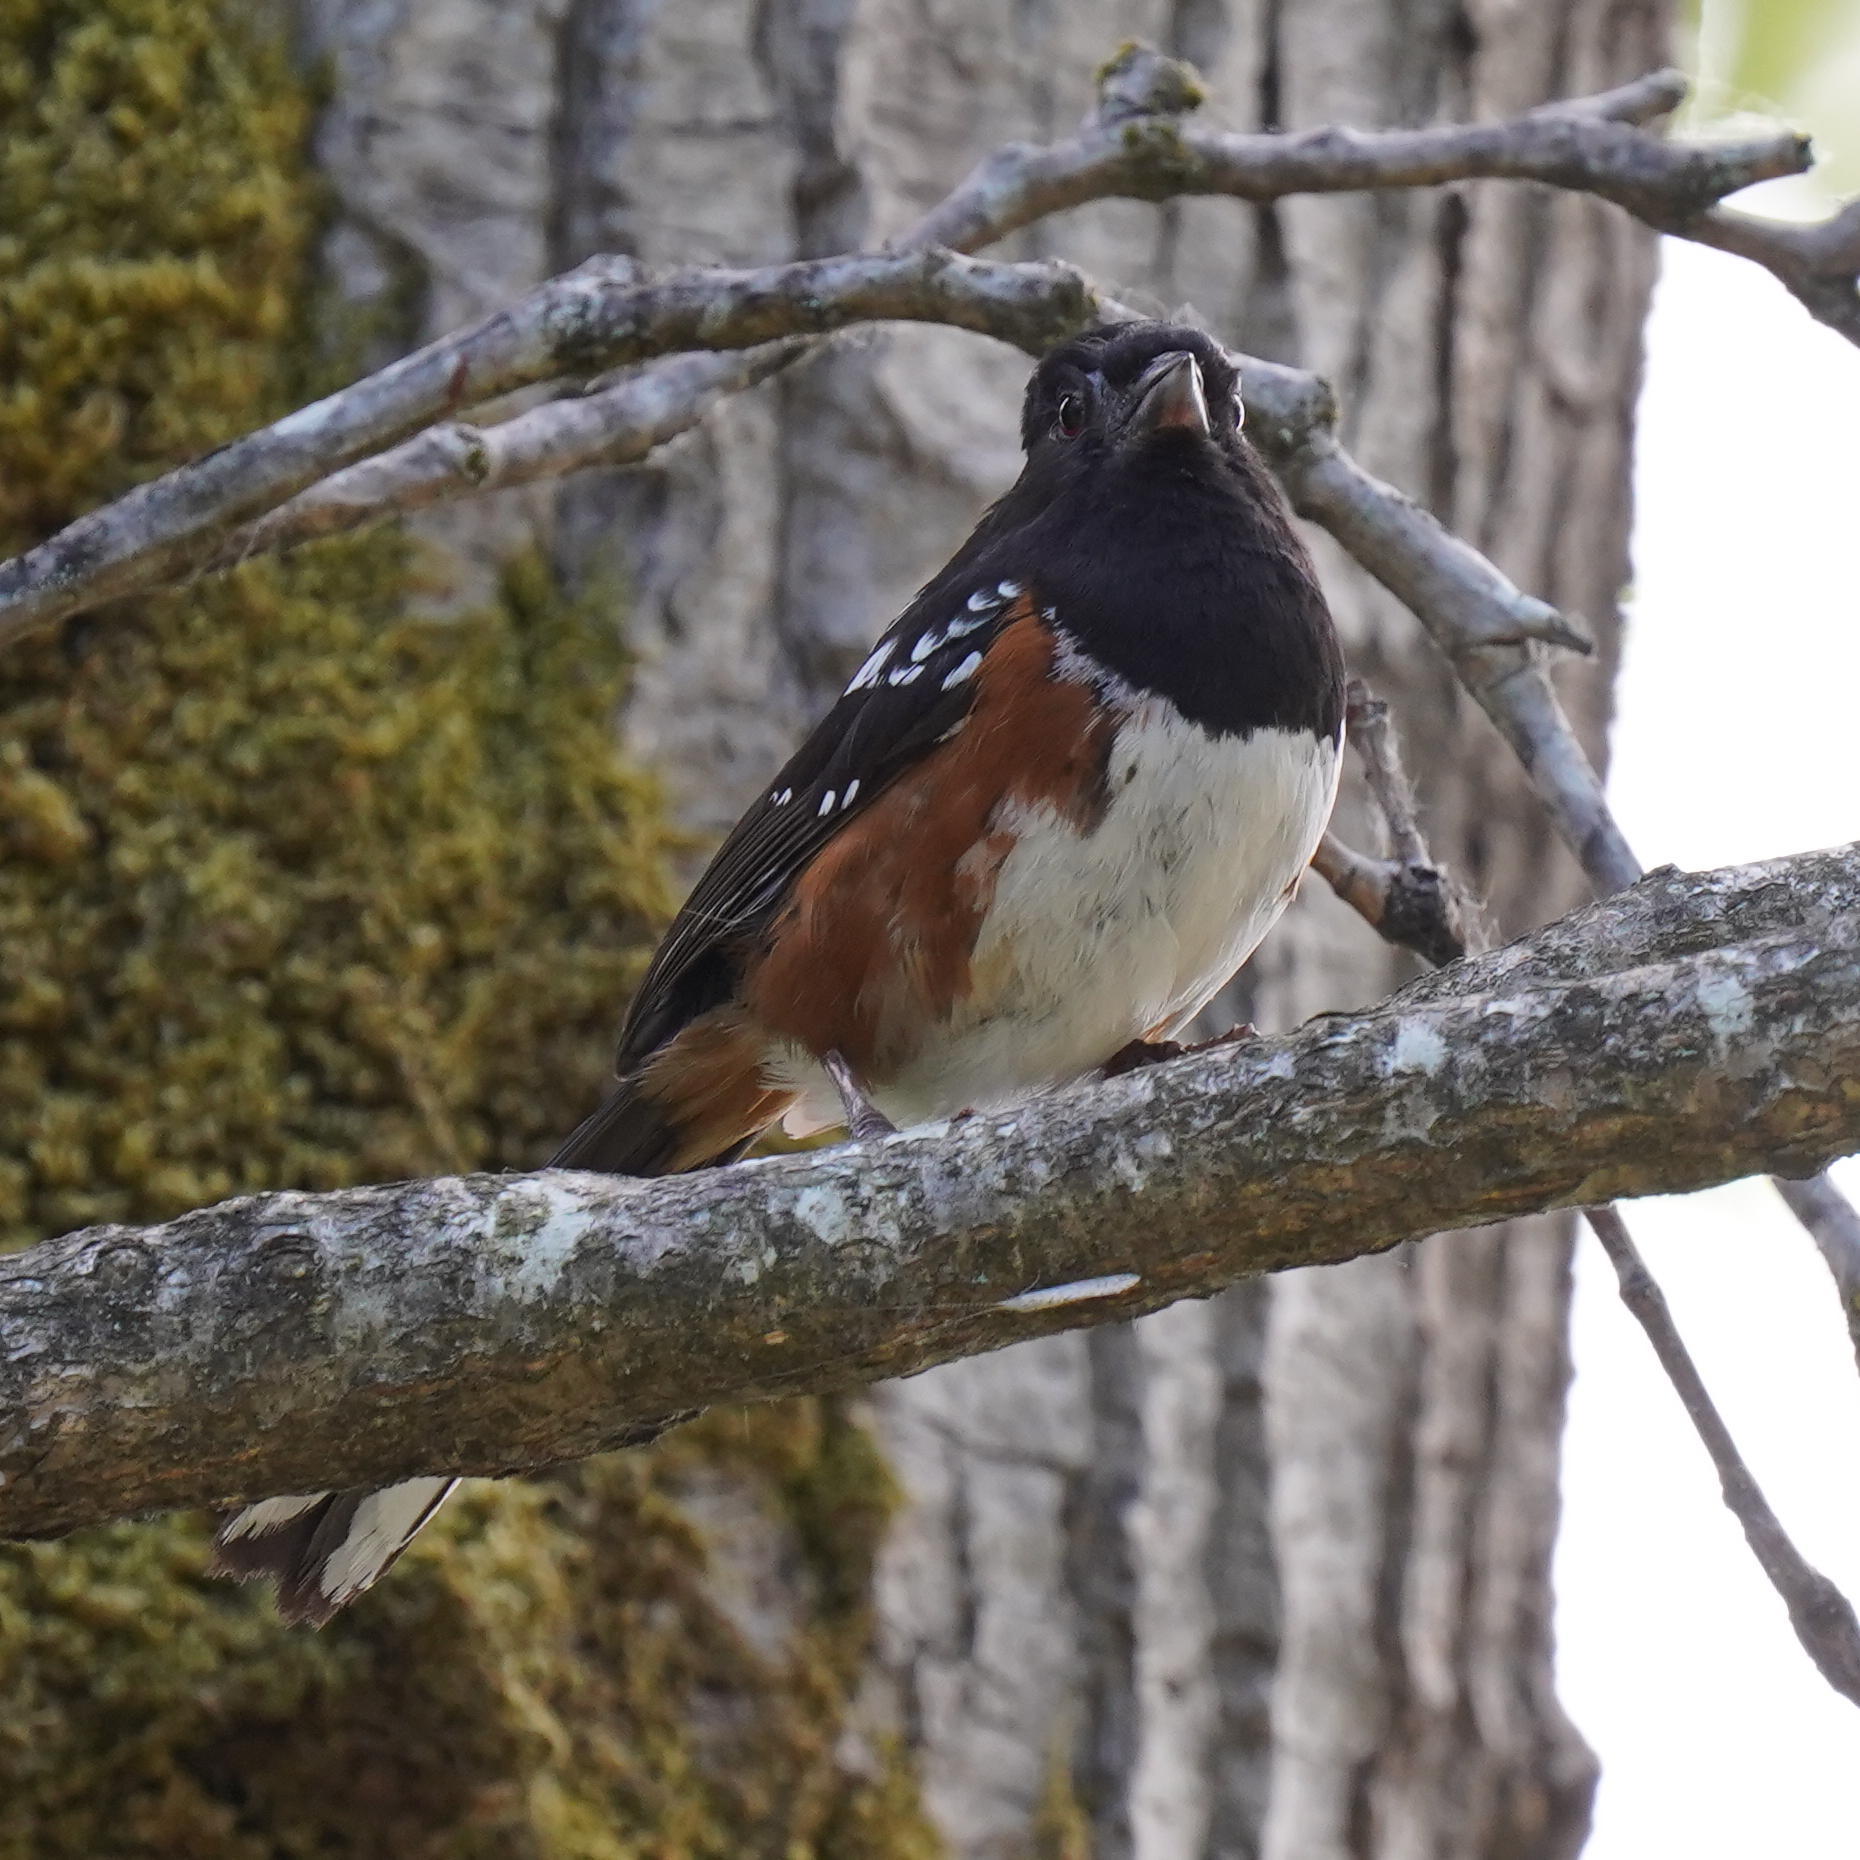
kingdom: Animalia
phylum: Chordata
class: Aves
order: Passeriformes
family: Passerellidae
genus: Pipilo
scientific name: Pipilo maculatus
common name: Spotted towhee
